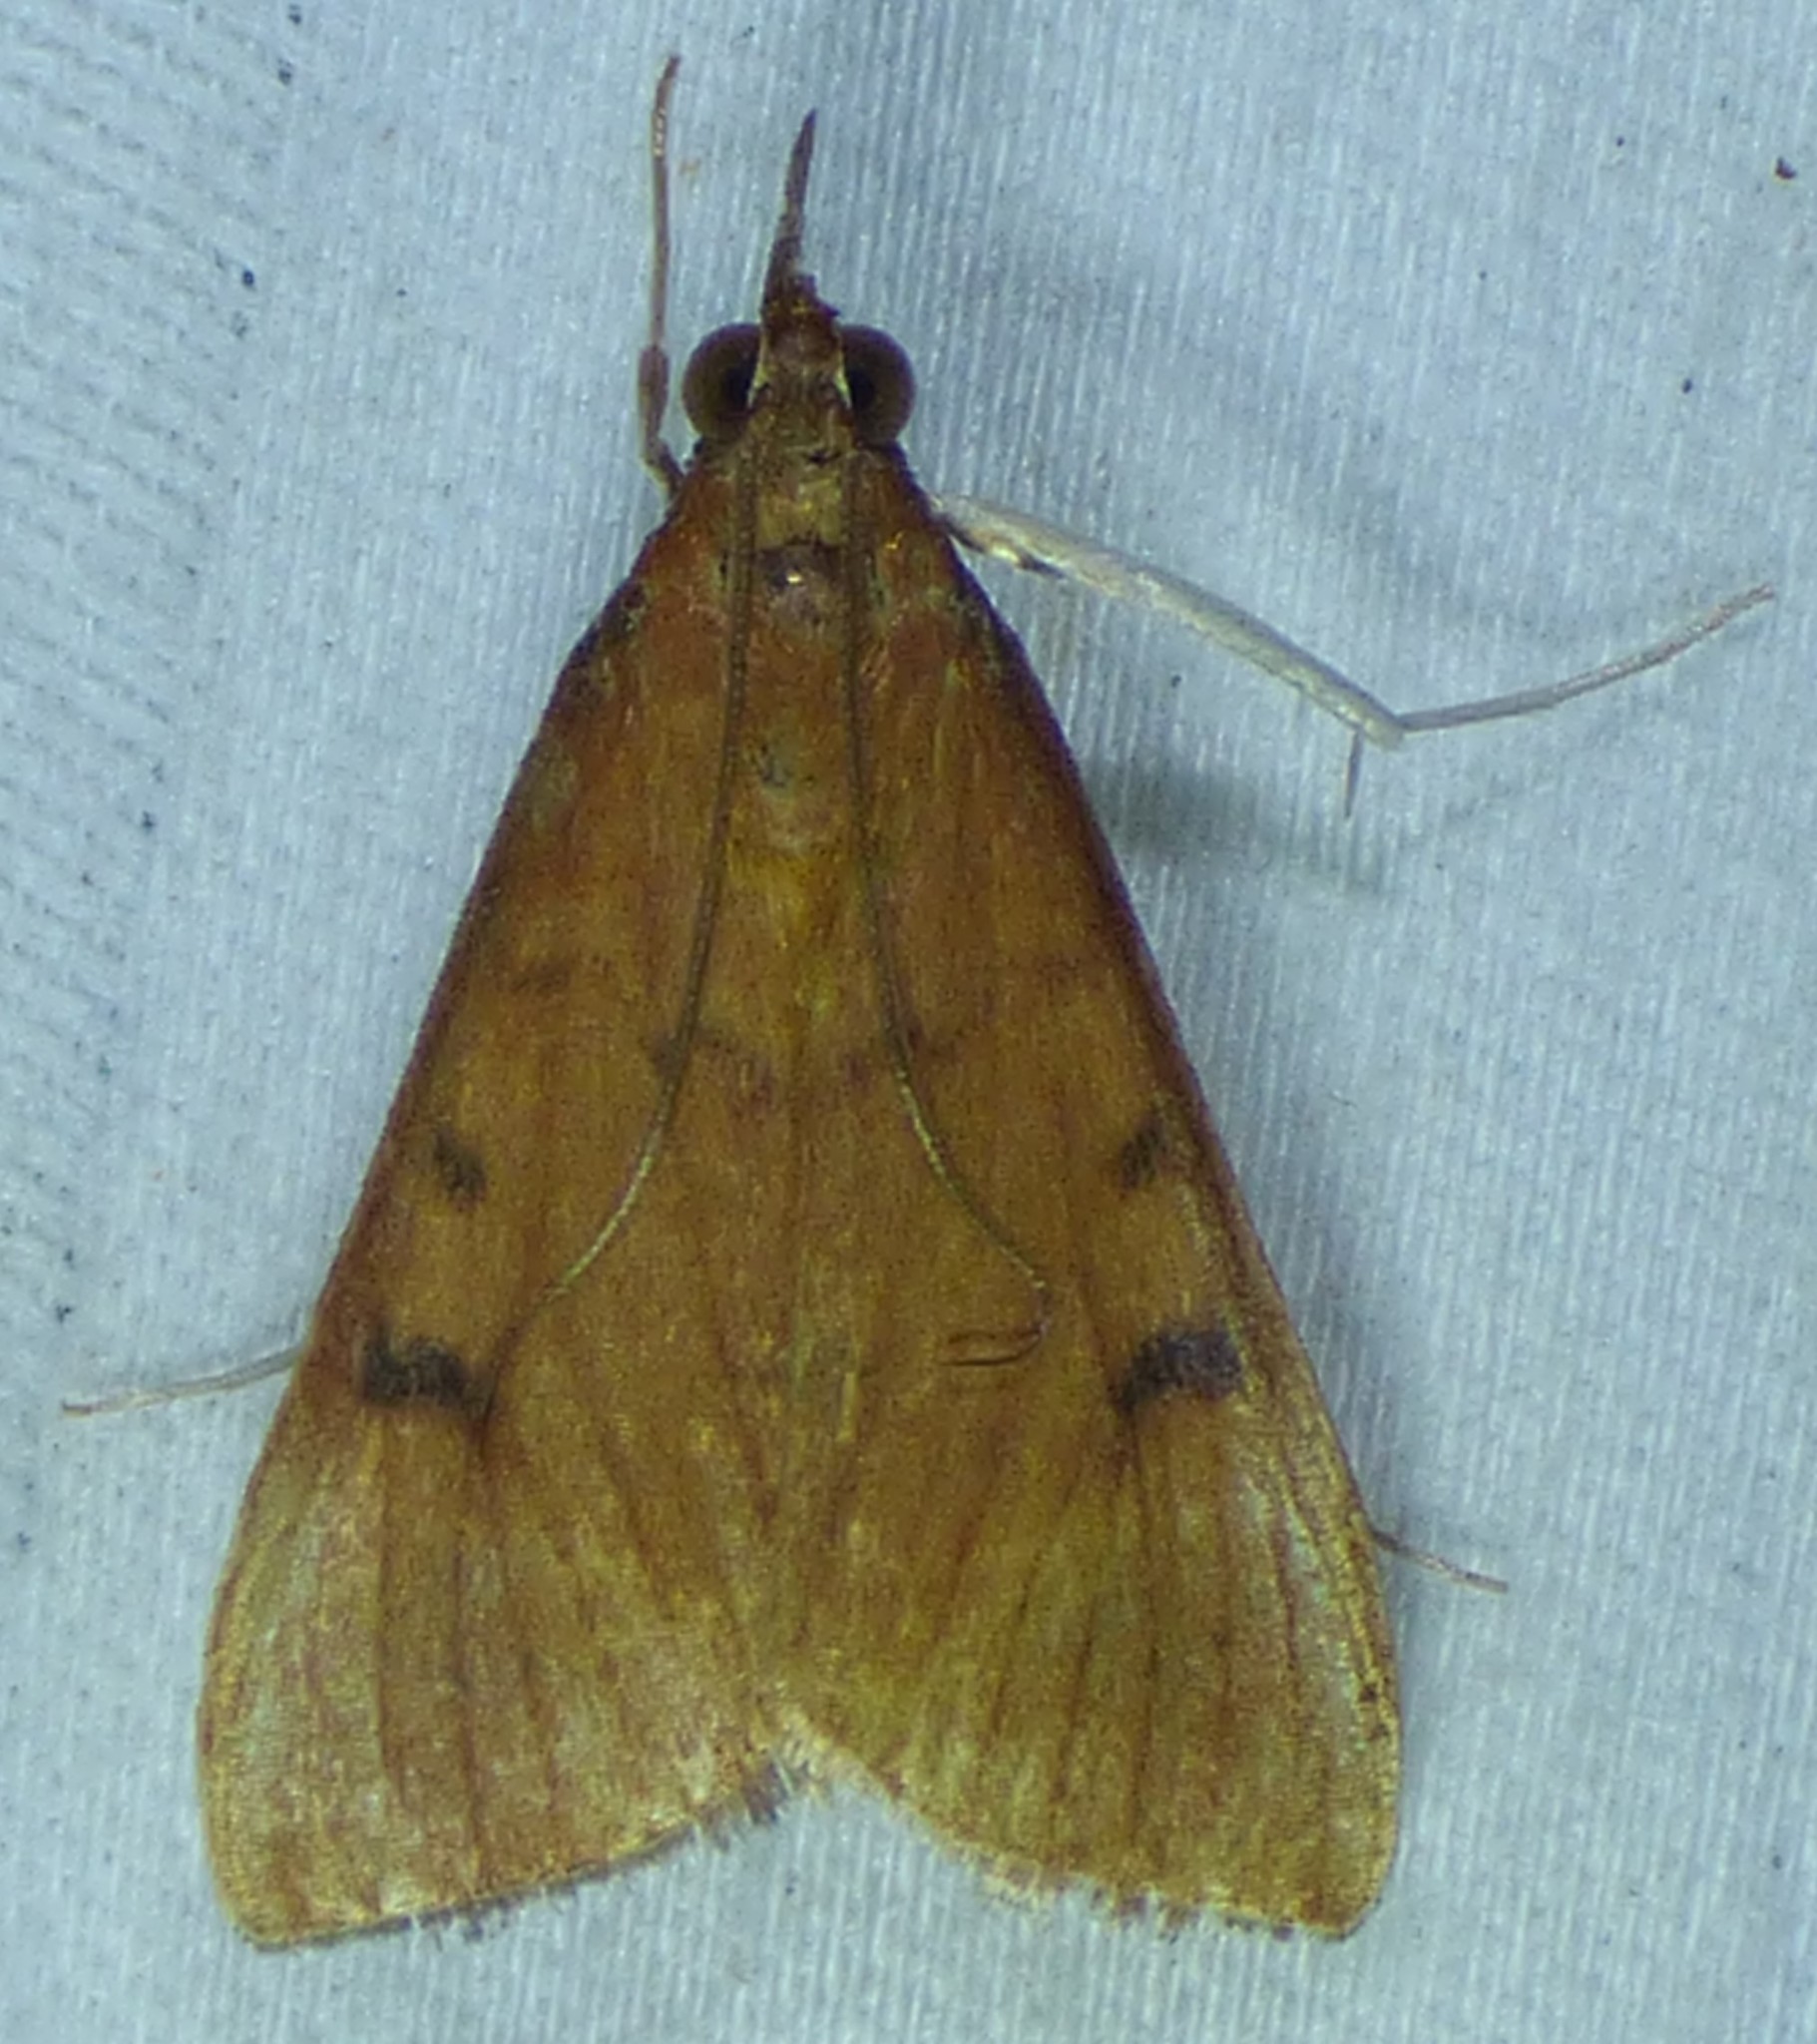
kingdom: Animalia
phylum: Arthropoda
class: Insecta
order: Lepidoptera
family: Crambidae
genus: Uresiphita
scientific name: Uresiphita reversalis
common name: Genista broom moth
